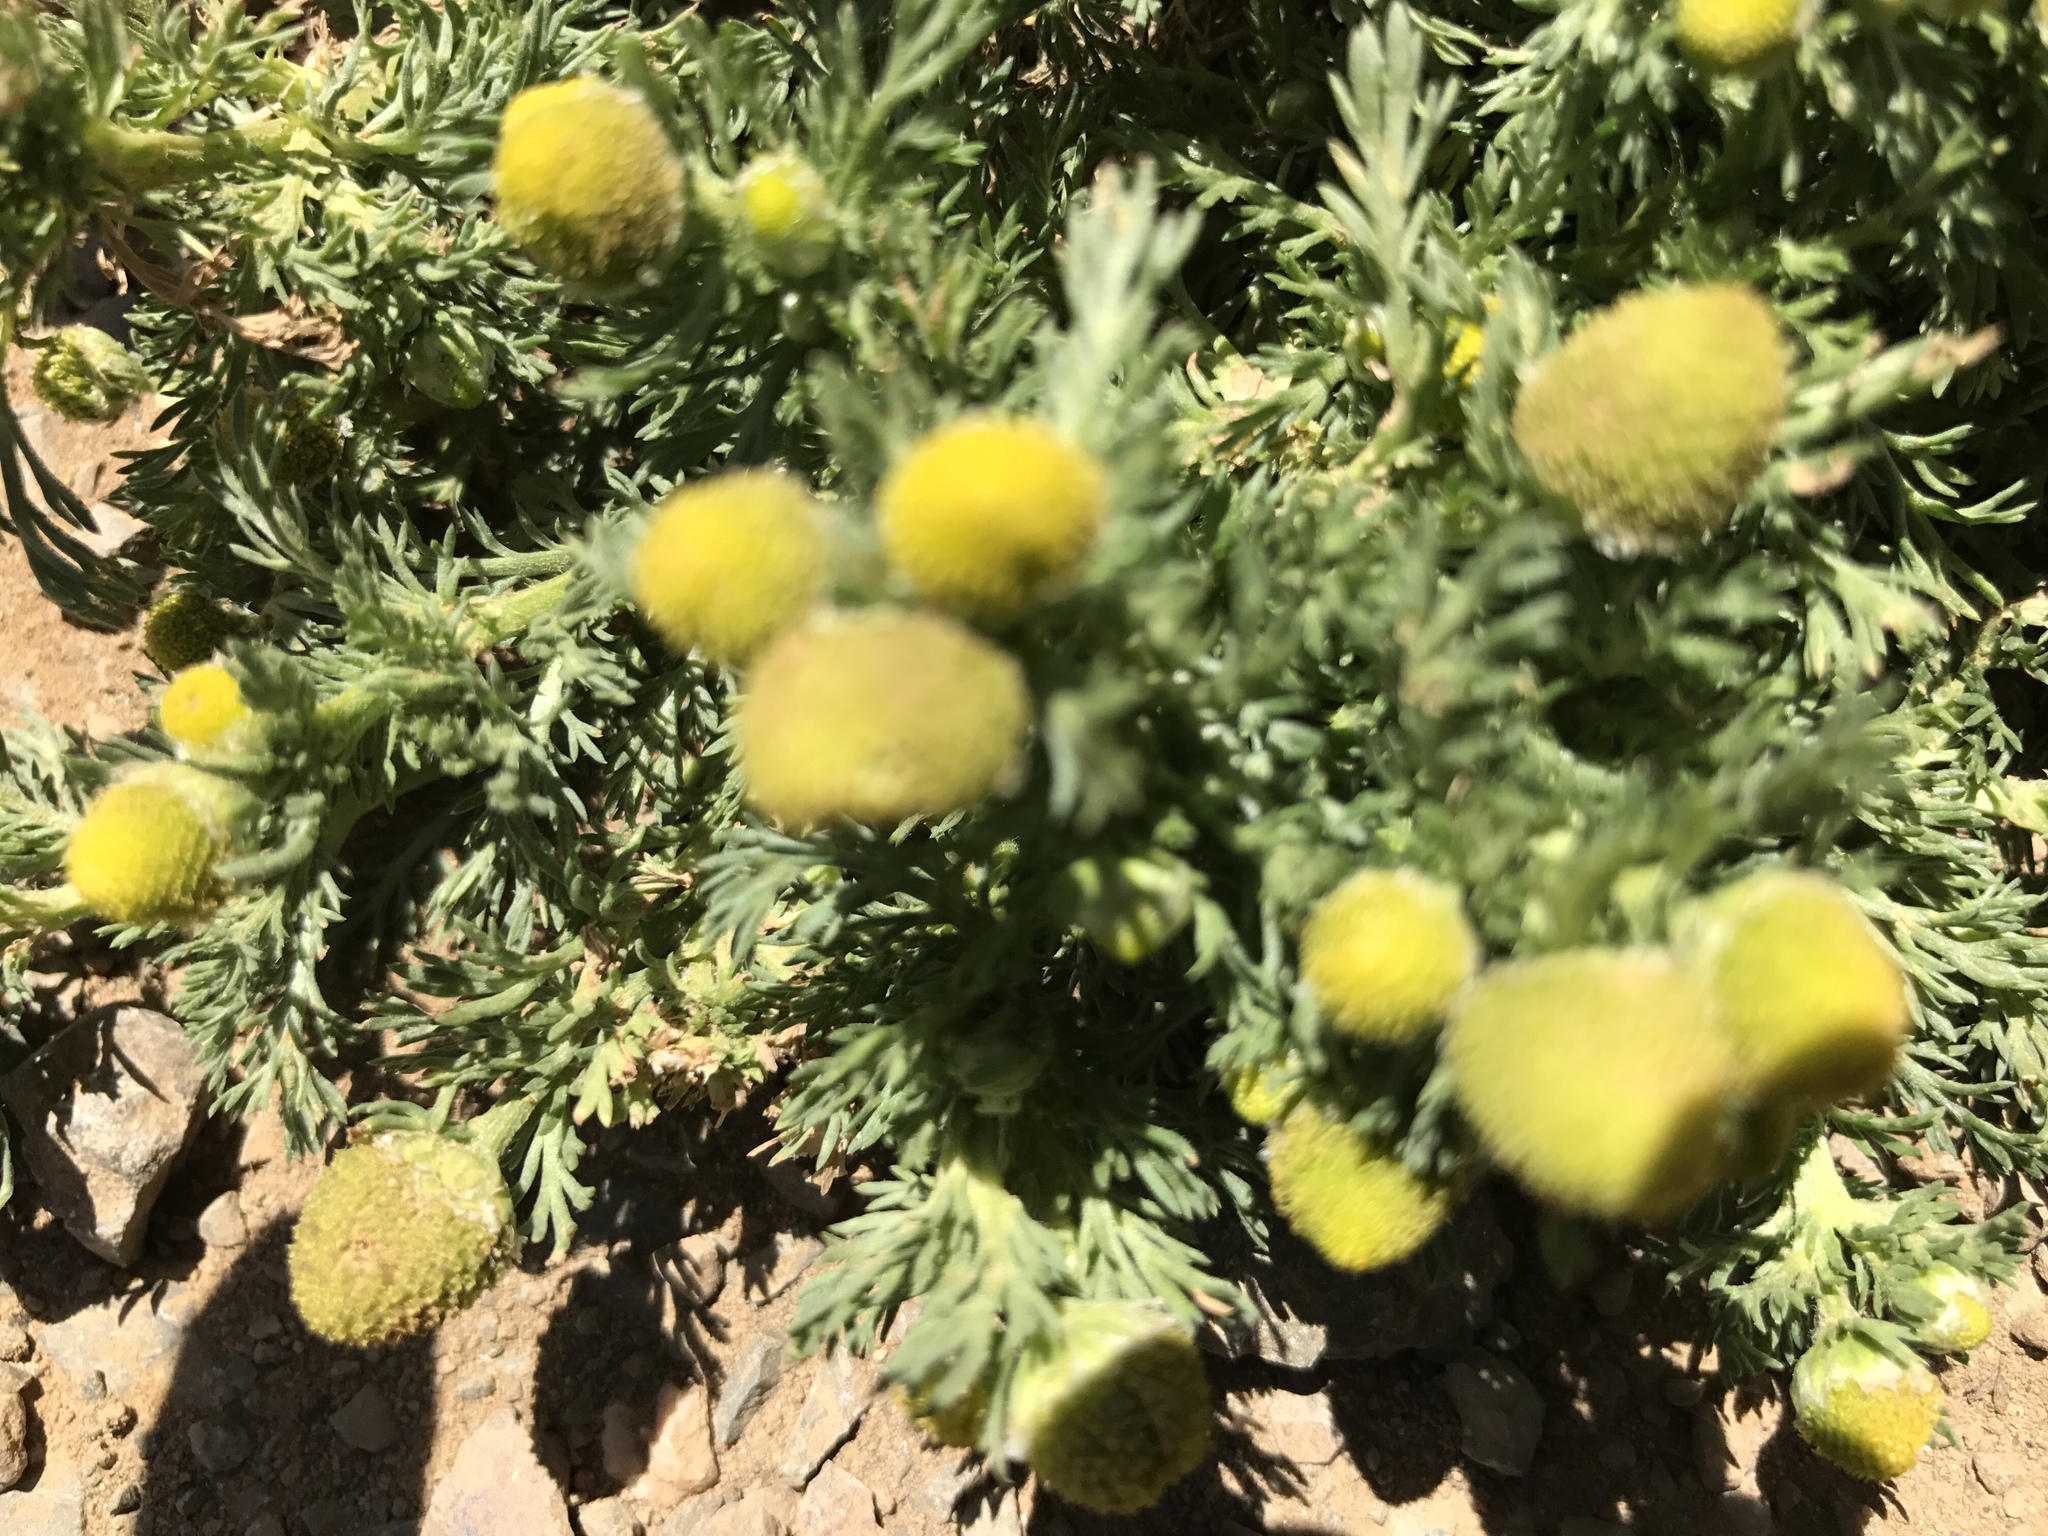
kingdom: Plantae
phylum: Tracheophyta
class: Magnoliopsida
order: Asterales
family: Asteraceae
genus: Matricaria
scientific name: Matricaria discoidea
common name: Disc mayweed
